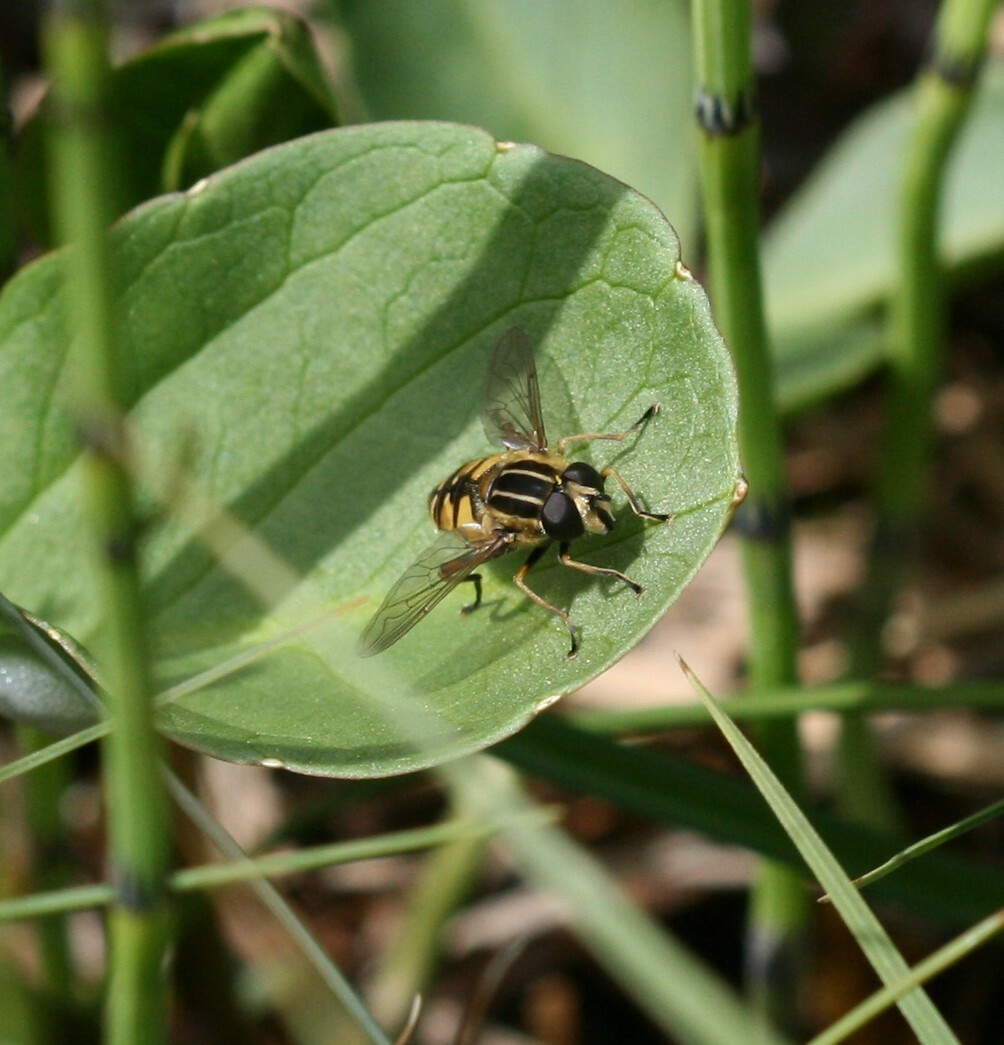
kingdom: Animalia
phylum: Arthropoda
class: Insecta
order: Diptera
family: Syrphidae
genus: Helophilus
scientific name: Helophilus pendulus
